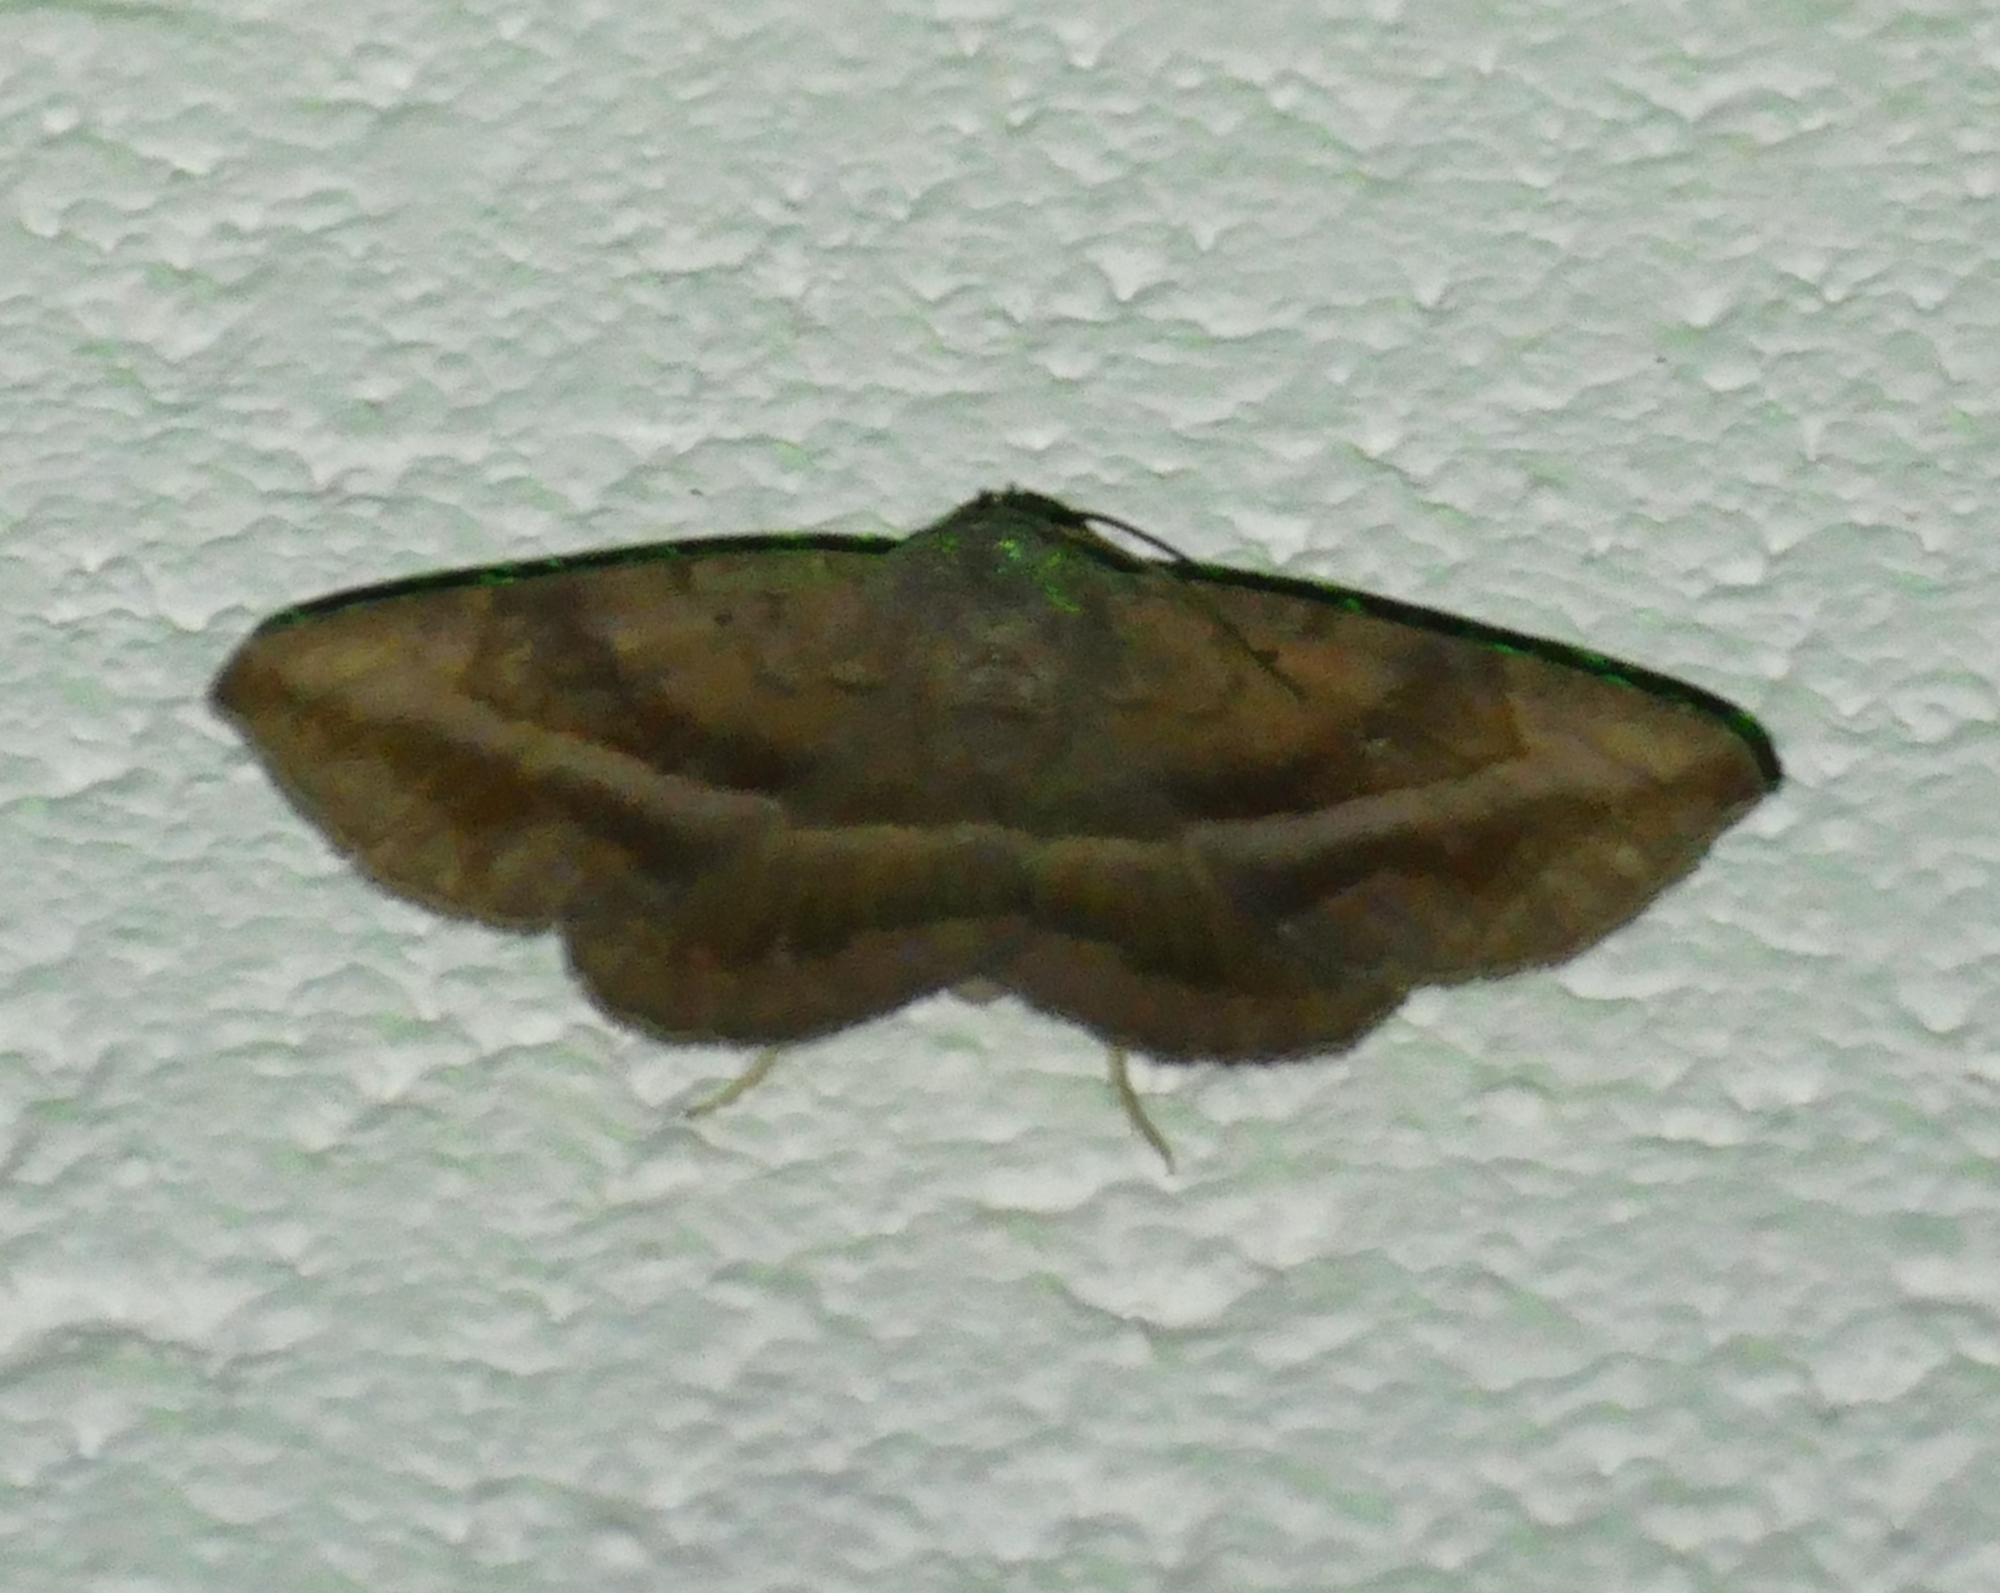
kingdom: Animalia
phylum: Arthropoda
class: Insecta
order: Lepidoptera
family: Erebidae
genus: Lesmone
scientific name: Lesmone detrahens
